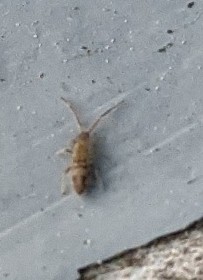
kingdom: Animalia
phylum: Arthropoda
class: Collembola
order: Entomobryomorpha
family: Entomobryidae
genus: Entomobrya
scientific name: Entomobrya nivalis
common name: Cosmopolitan springtail
